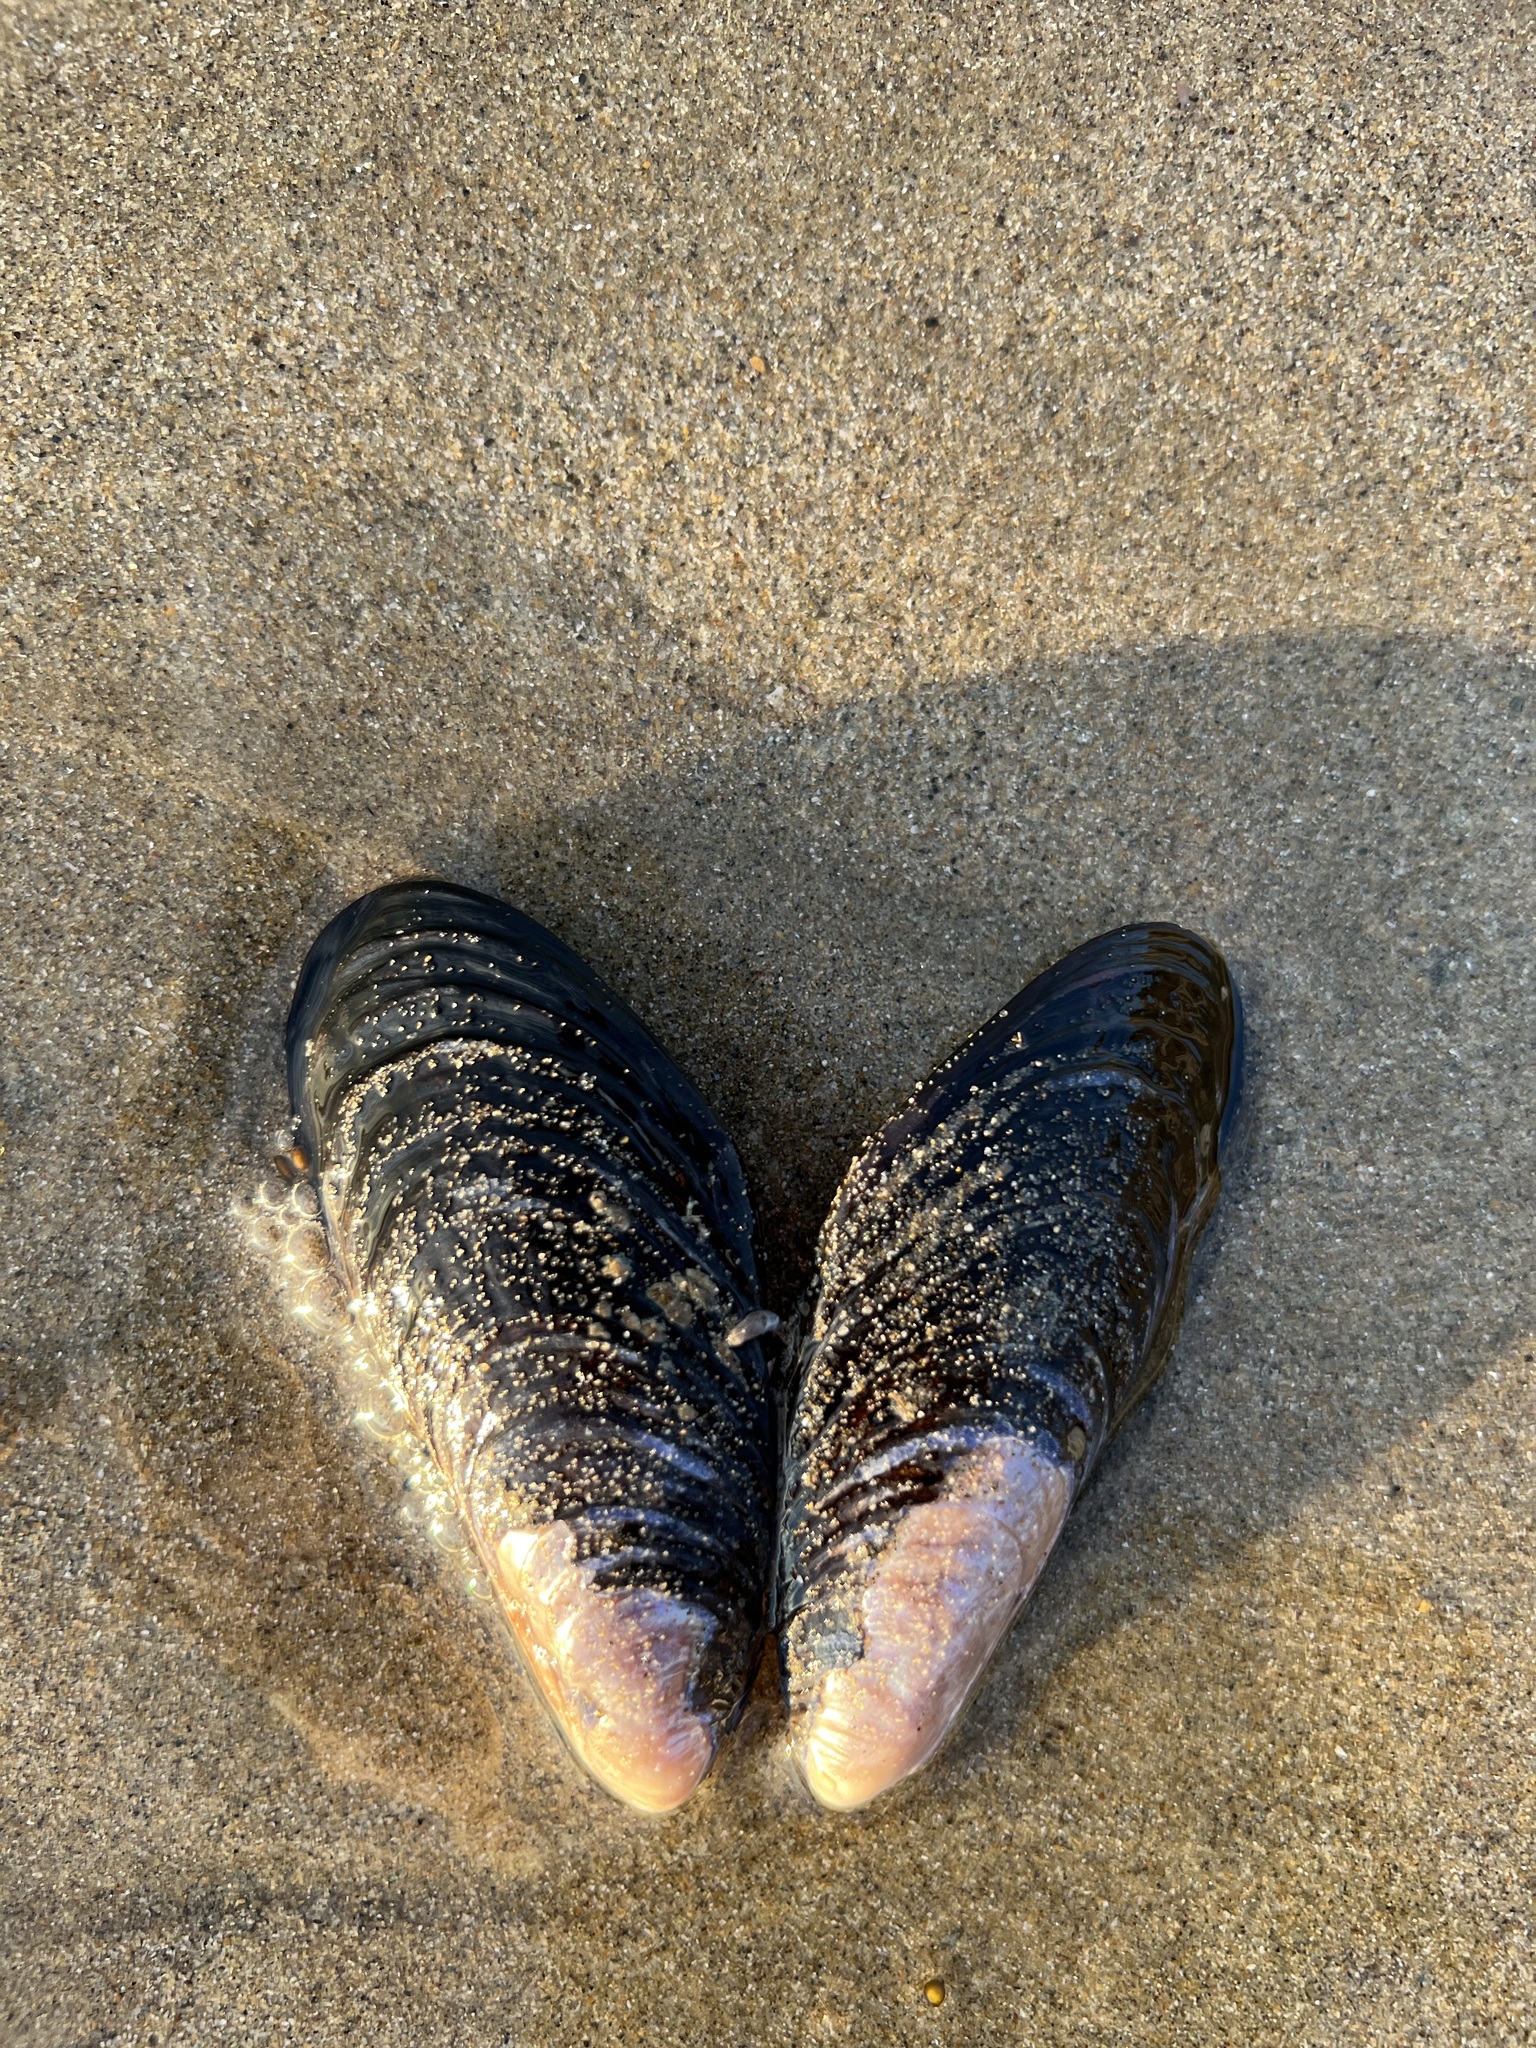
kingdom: Animalia
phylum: Mollusca
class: Bivalvia
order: Mytilida
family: Mytilidae
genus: Mytilus
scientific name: Mytilus californianus
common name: California mussel
